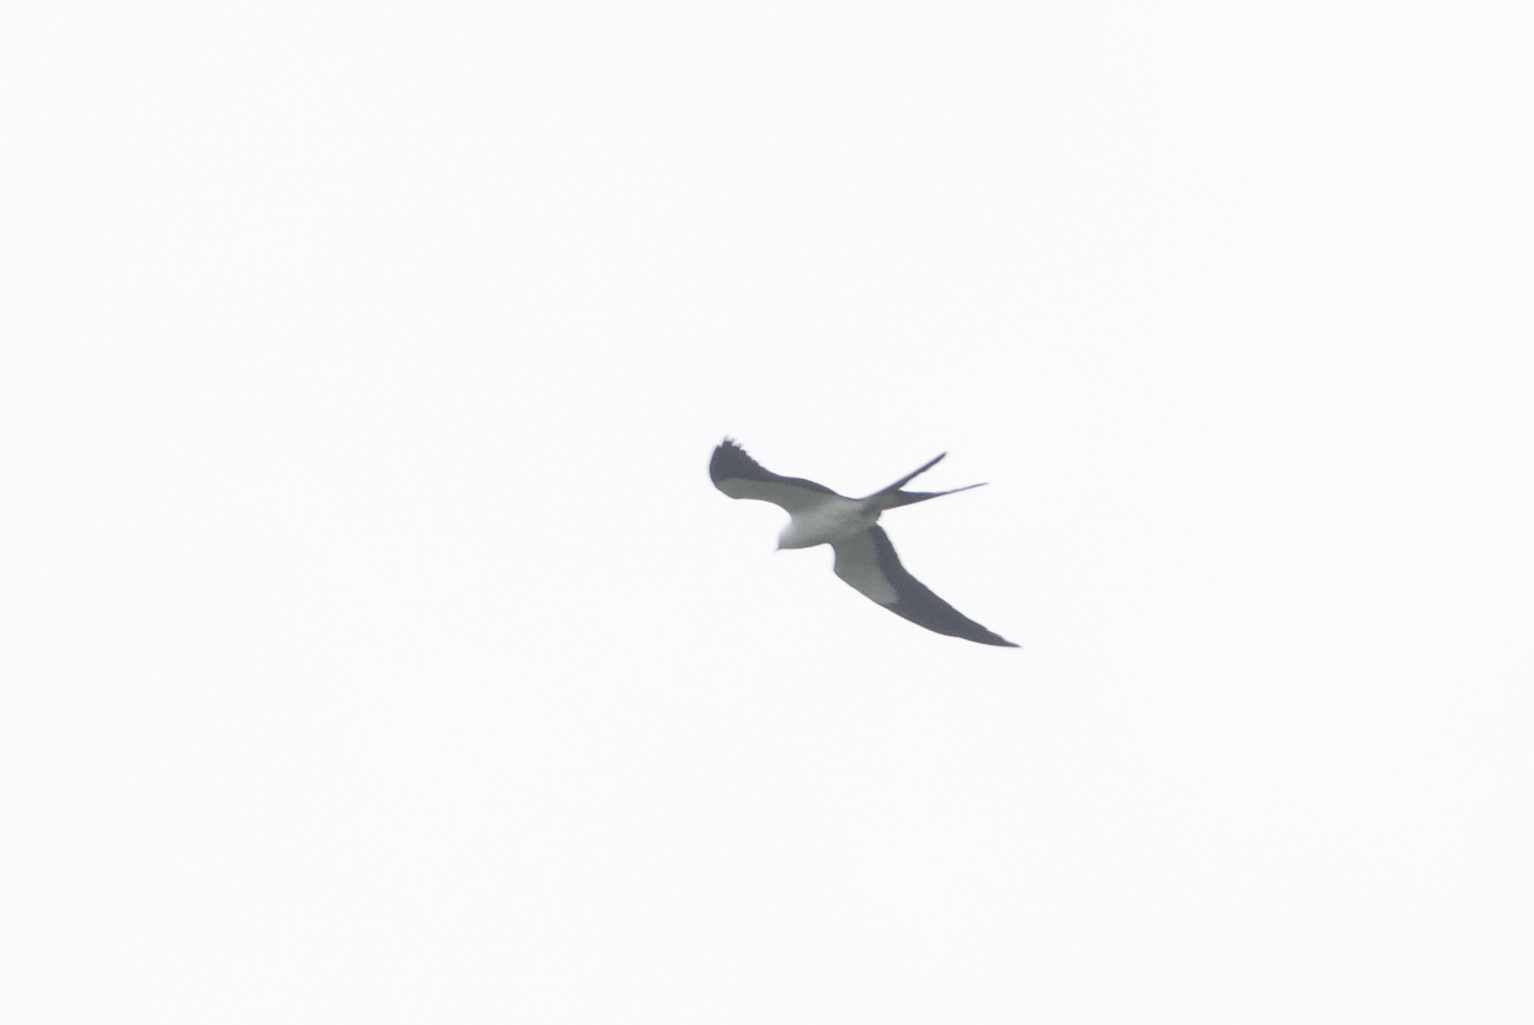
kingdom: Animalia
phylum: Chordata
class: Aves
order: Accipitriformes
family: Accipitridae
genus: Elanoides
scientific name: Elanoides forficatus
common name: Swallow-tailed kite
